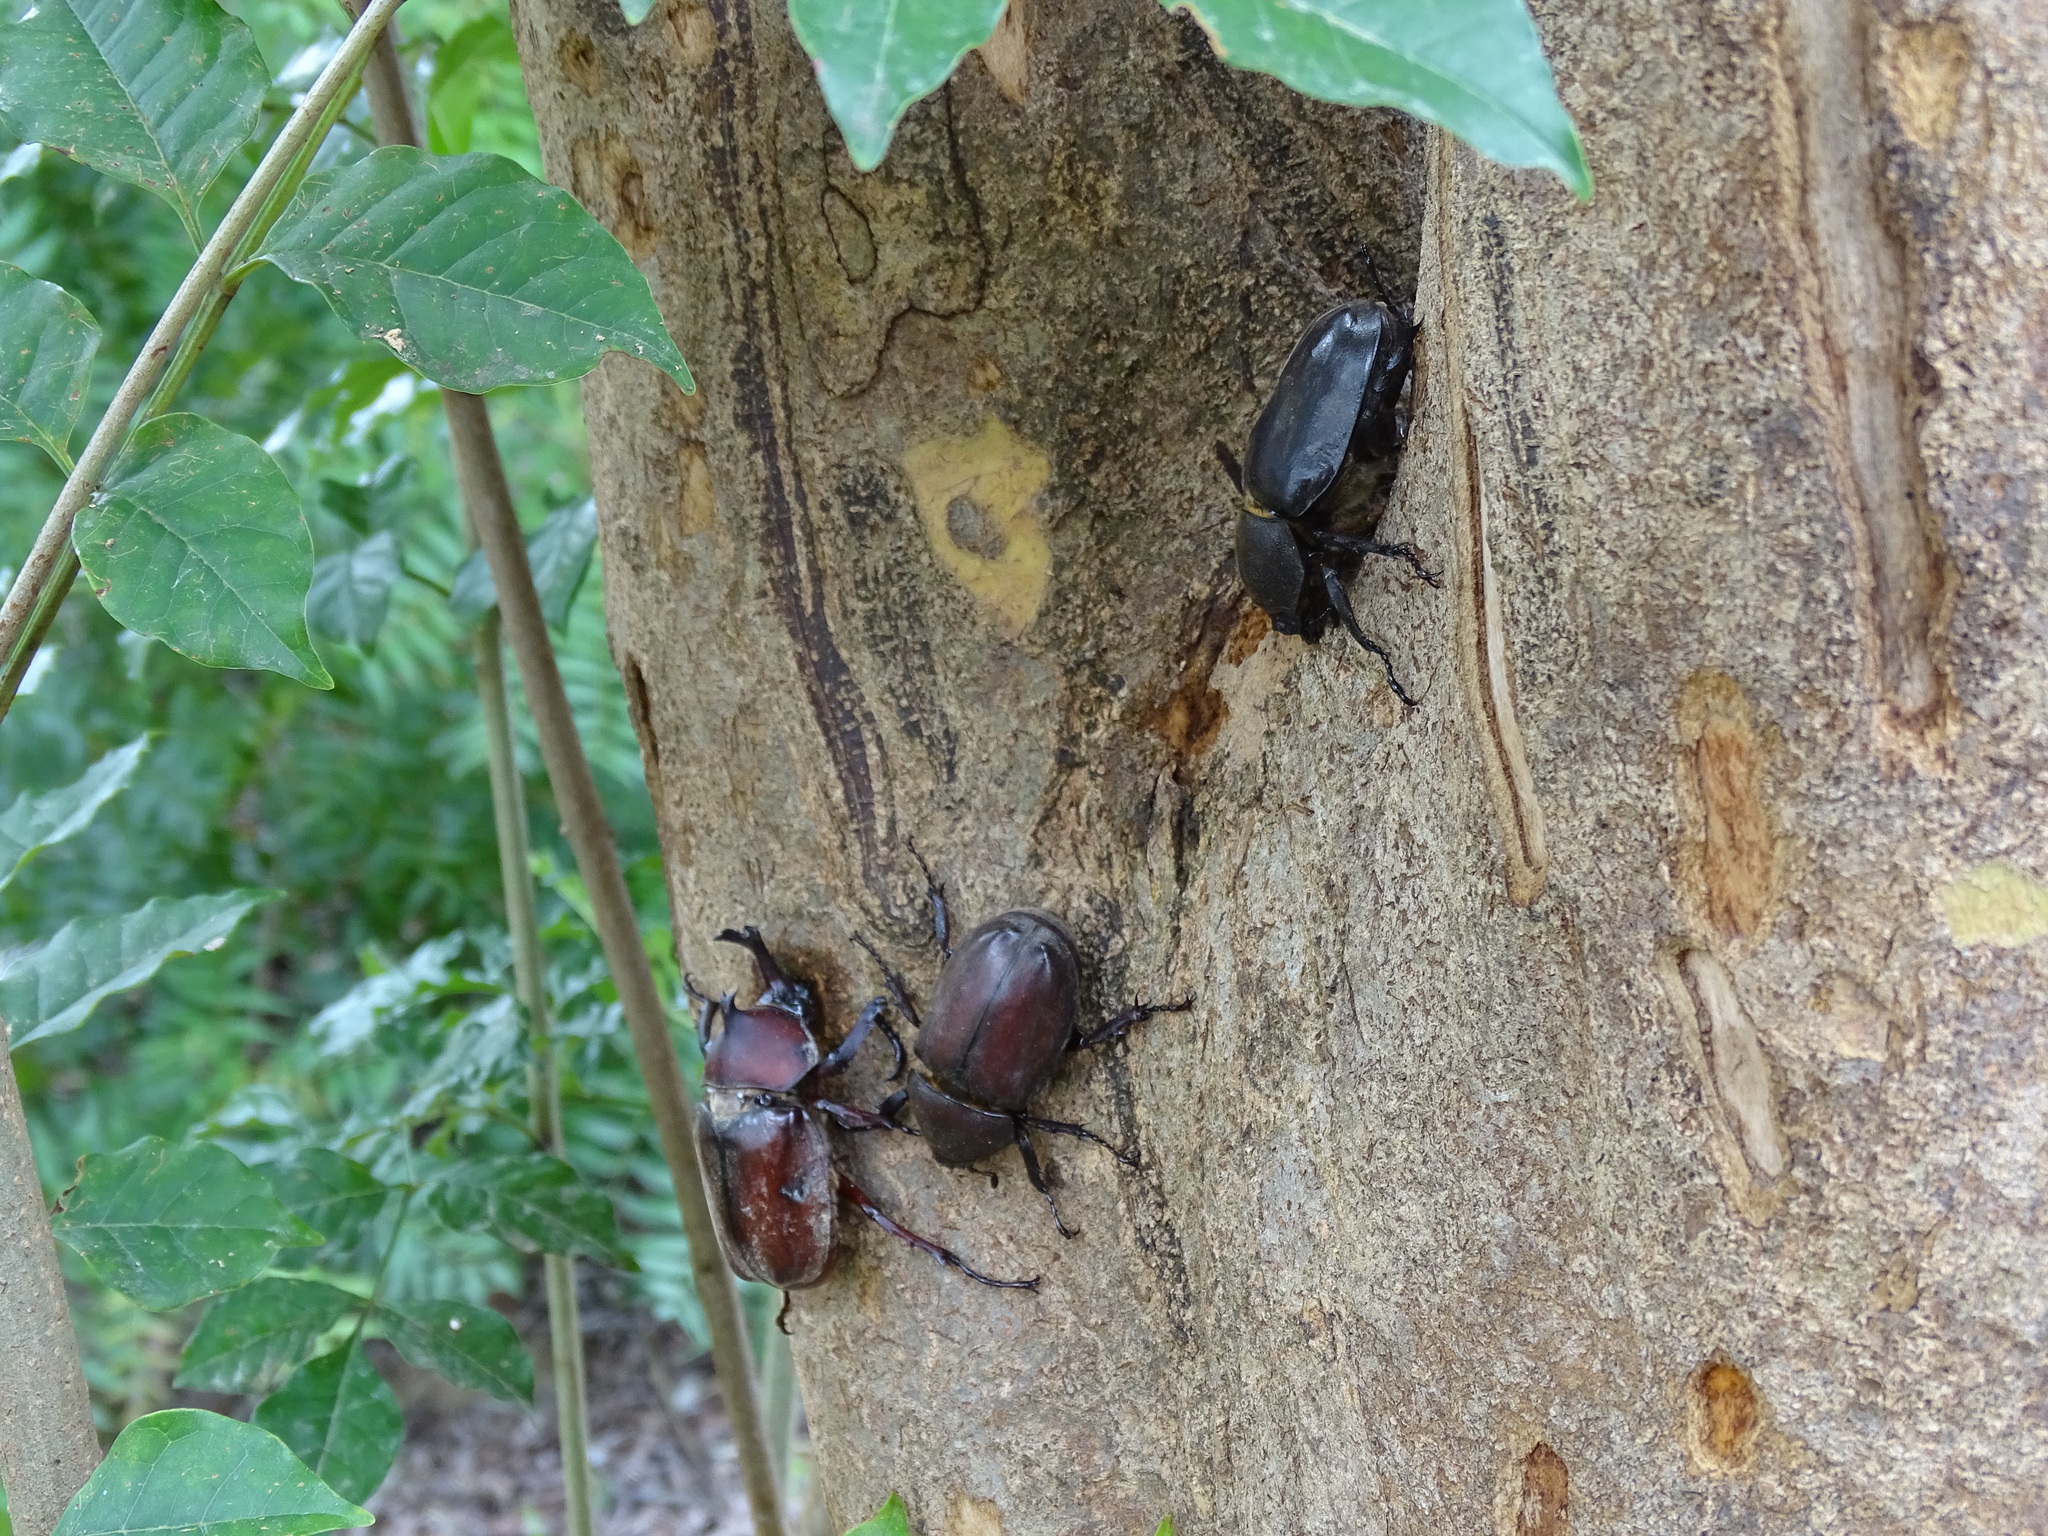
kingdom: Animalia
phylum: Arthropoda
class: Insecta
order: Coleoptera
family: Scarabaeidae
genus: Trypoxylus
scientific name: Trypoxylus dichotomus
